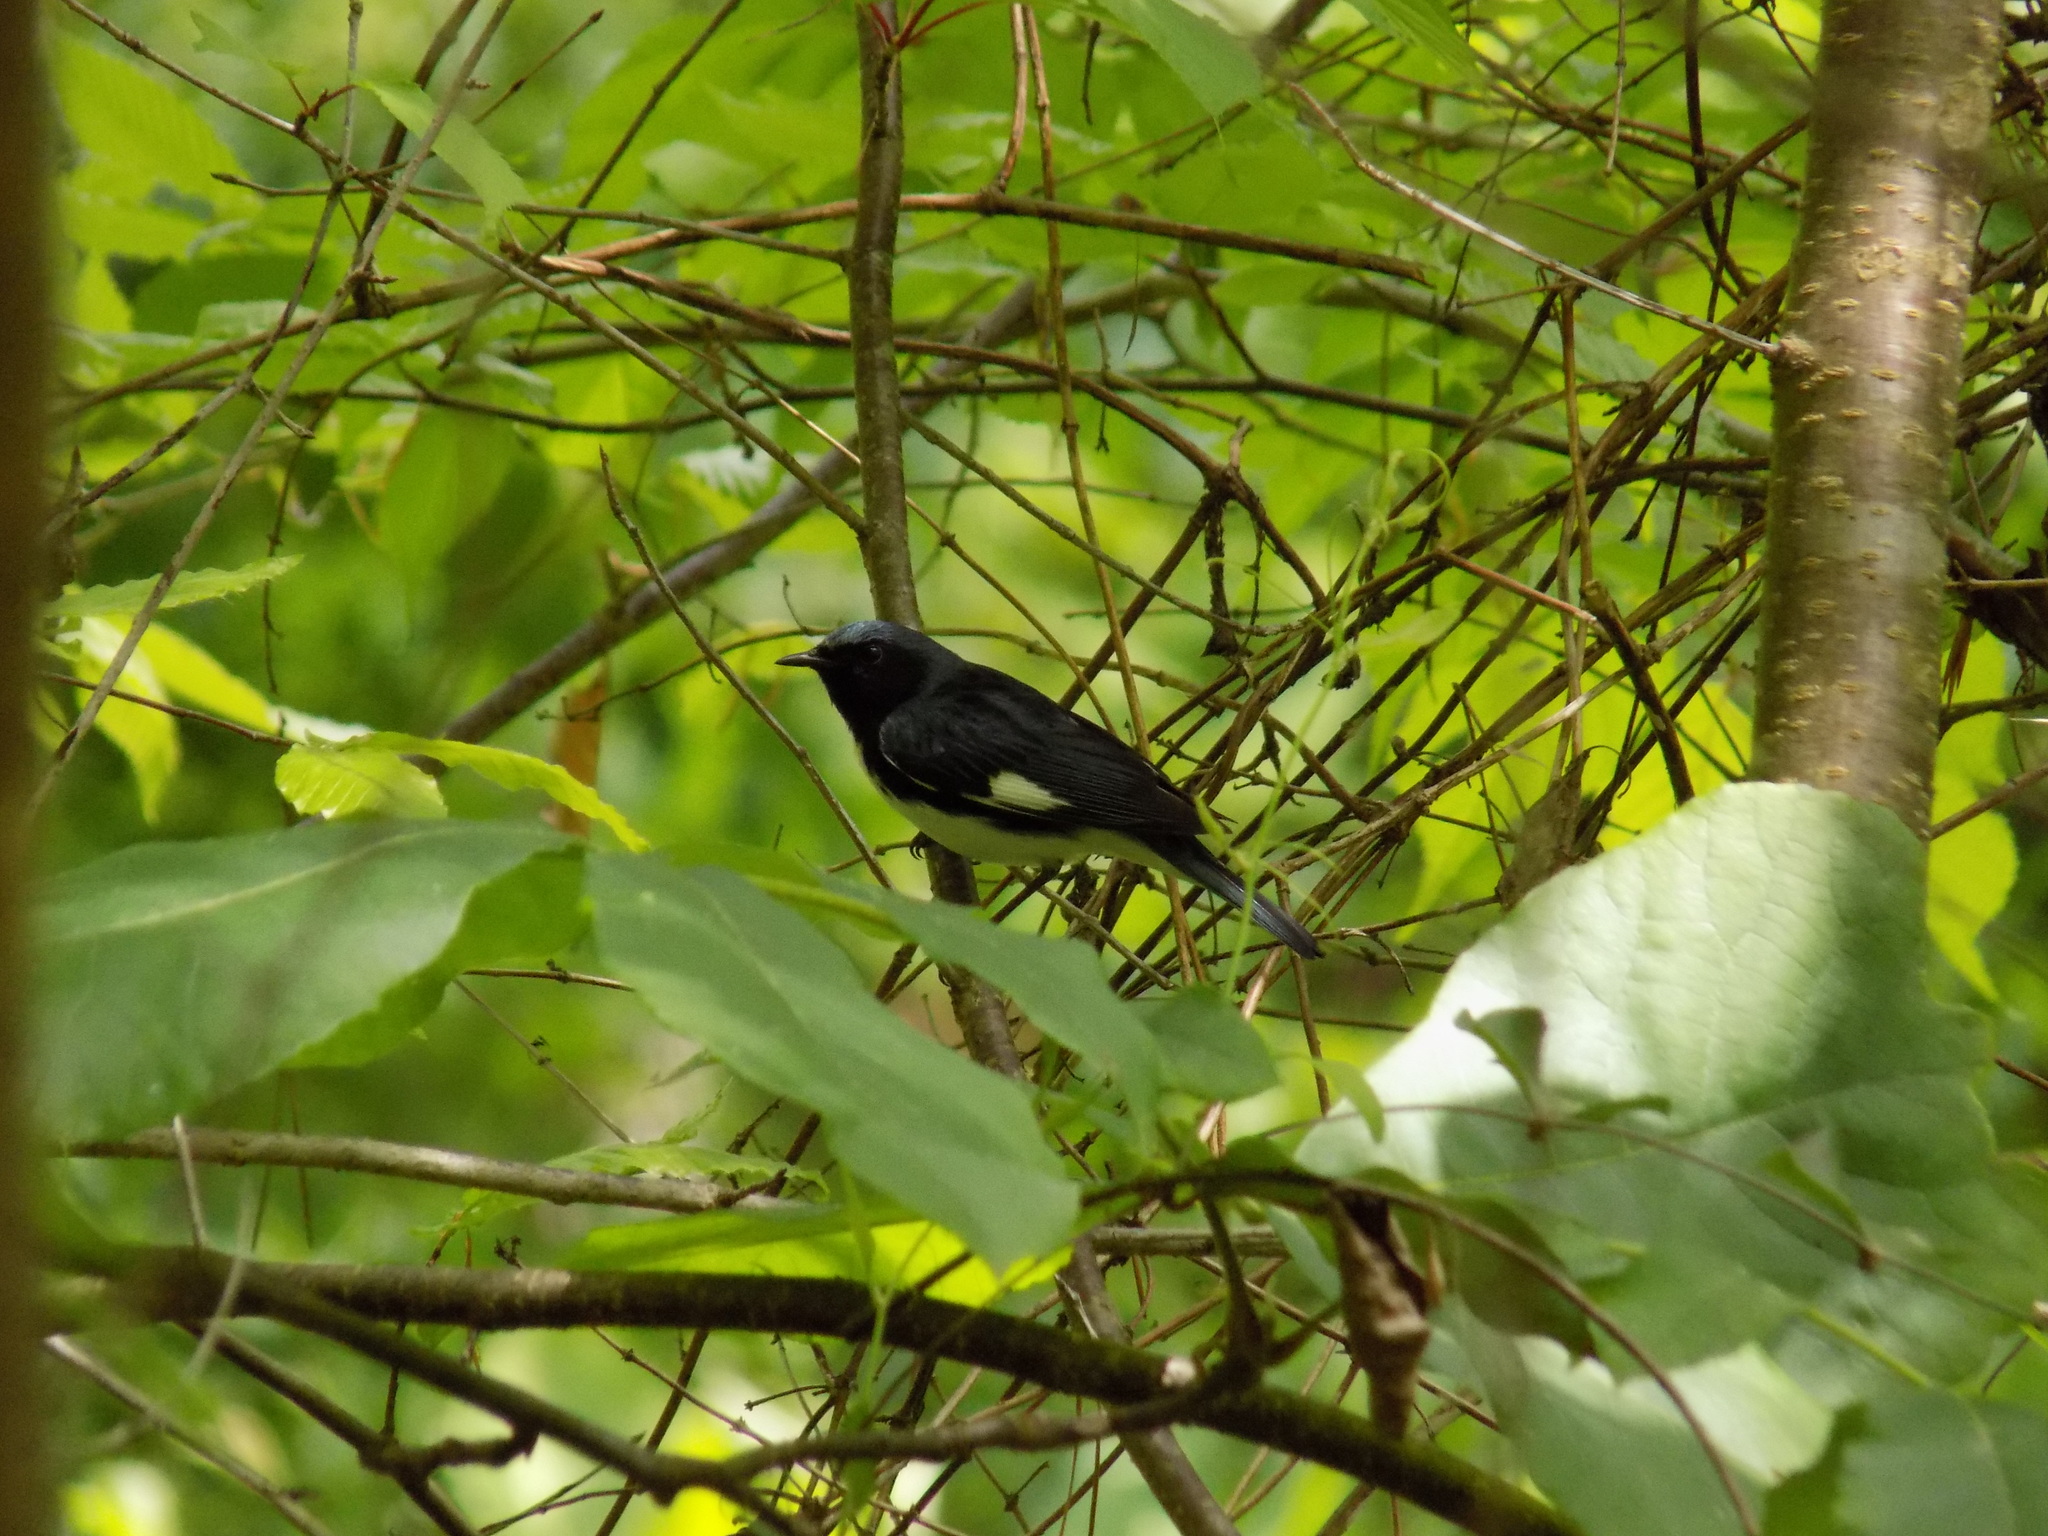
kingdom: Animalia
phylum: Chordata
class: Aves
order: Passeriformes
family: Parulidae
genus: Setophaga
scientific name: Setophaga caerulescens
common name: Black-throated blue warbler
